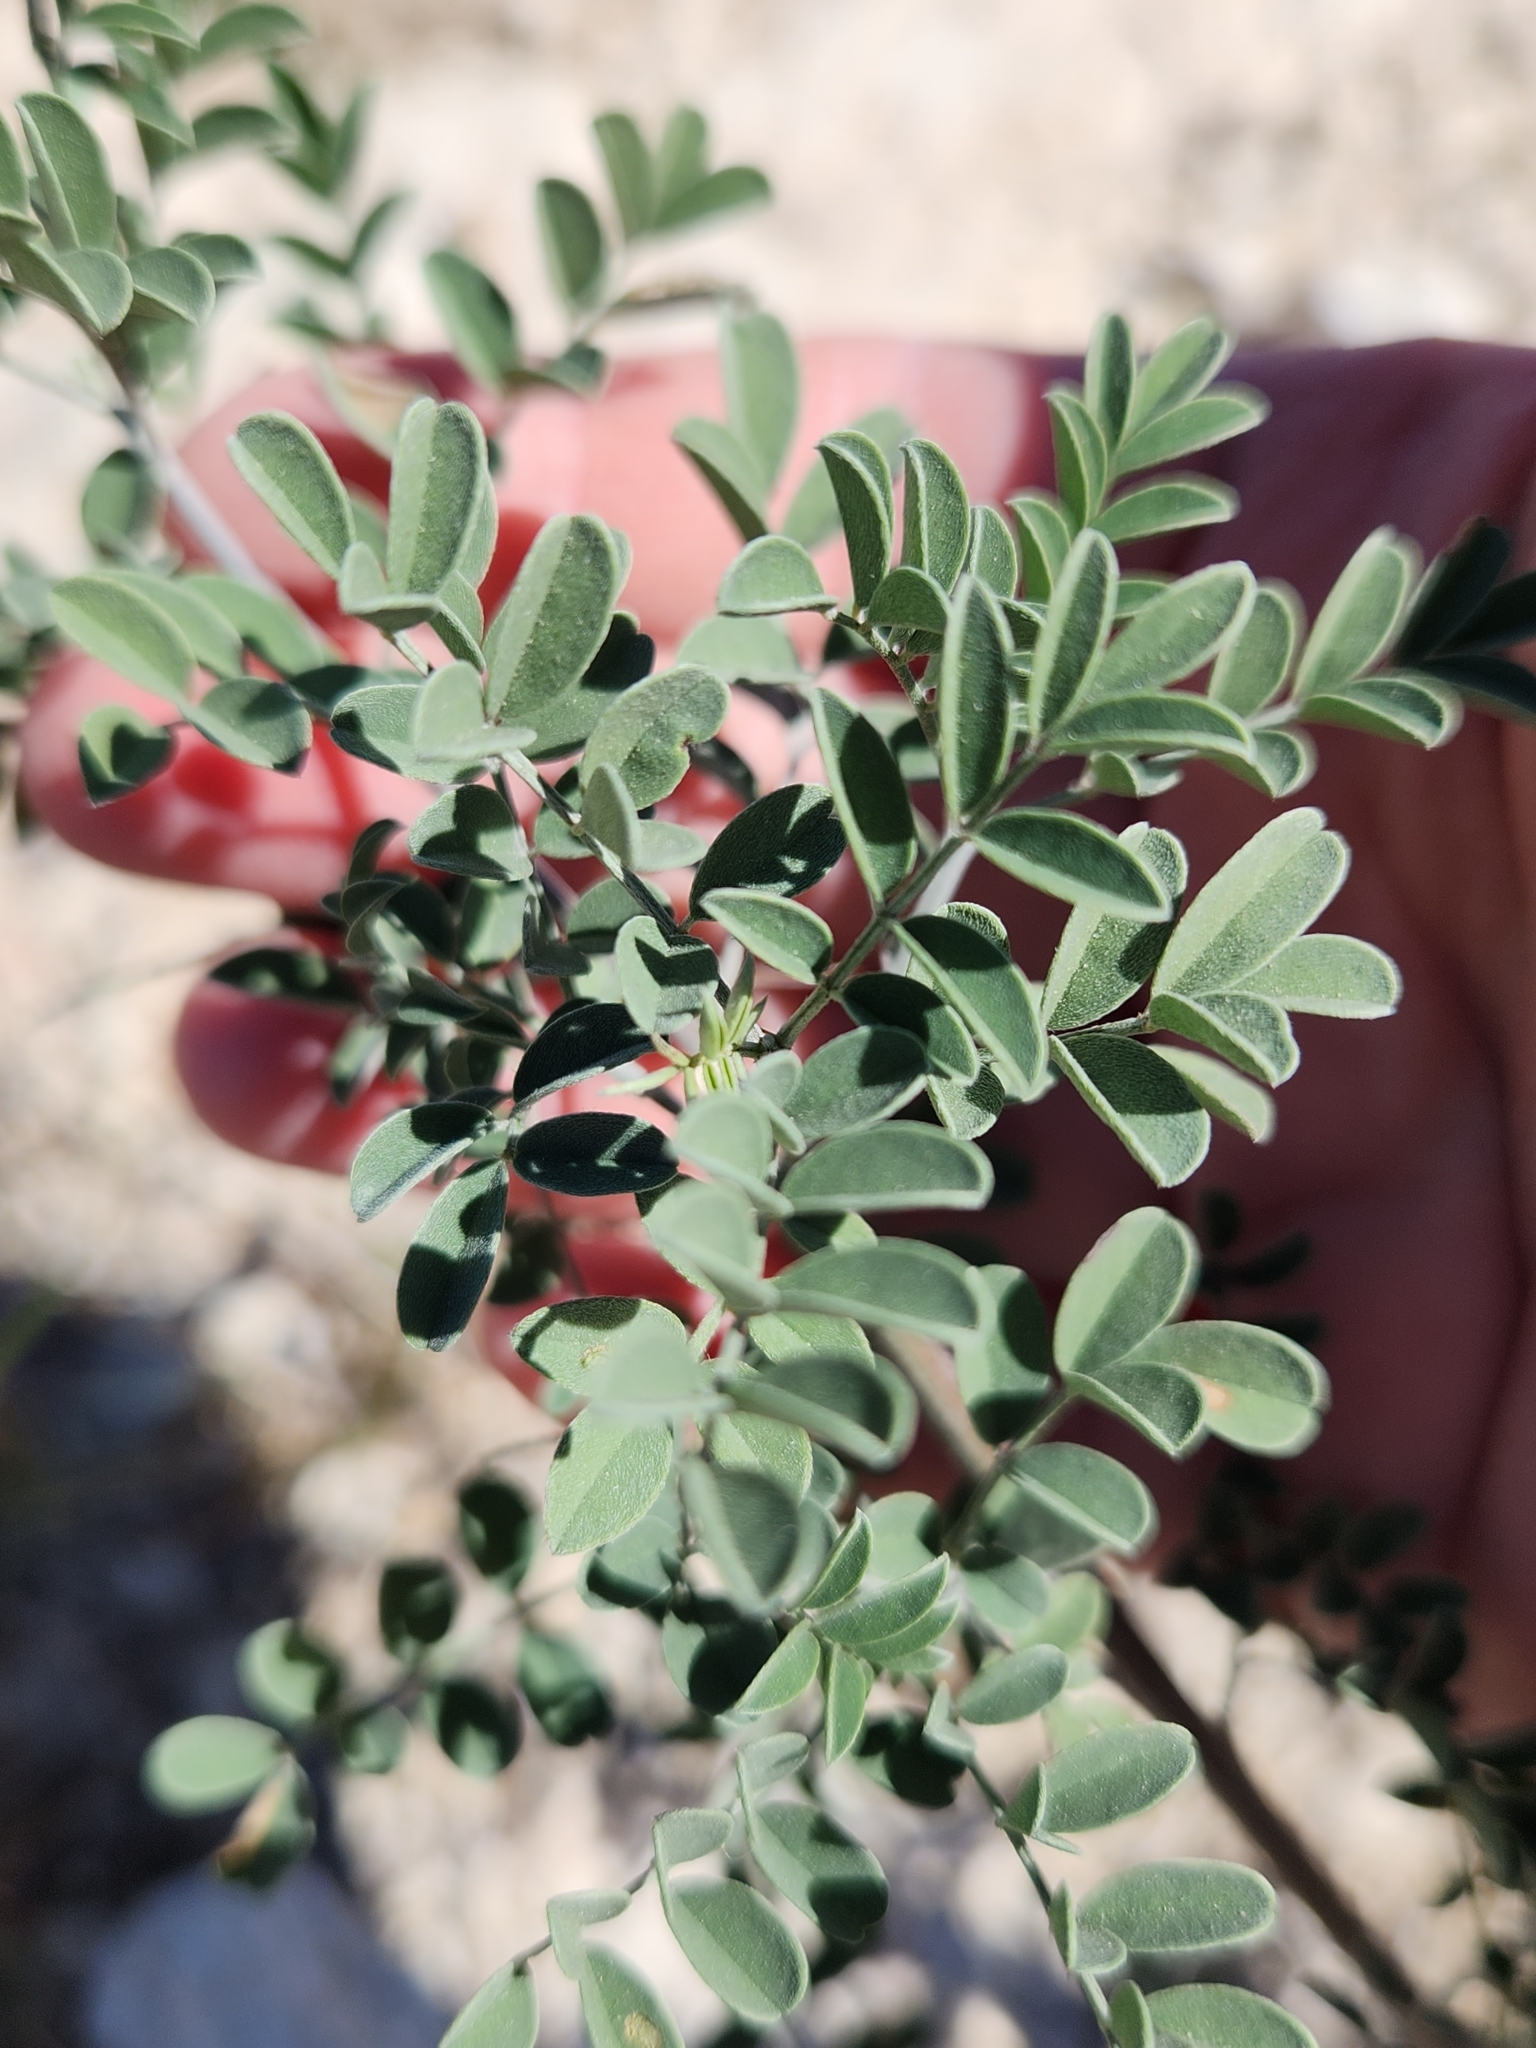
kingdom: Plantae
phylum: Tracheophyta
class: Magnoliopsida
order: Fabales
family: Fabaceae
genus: Indigofera
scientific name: Indigofera lindheimeriana
